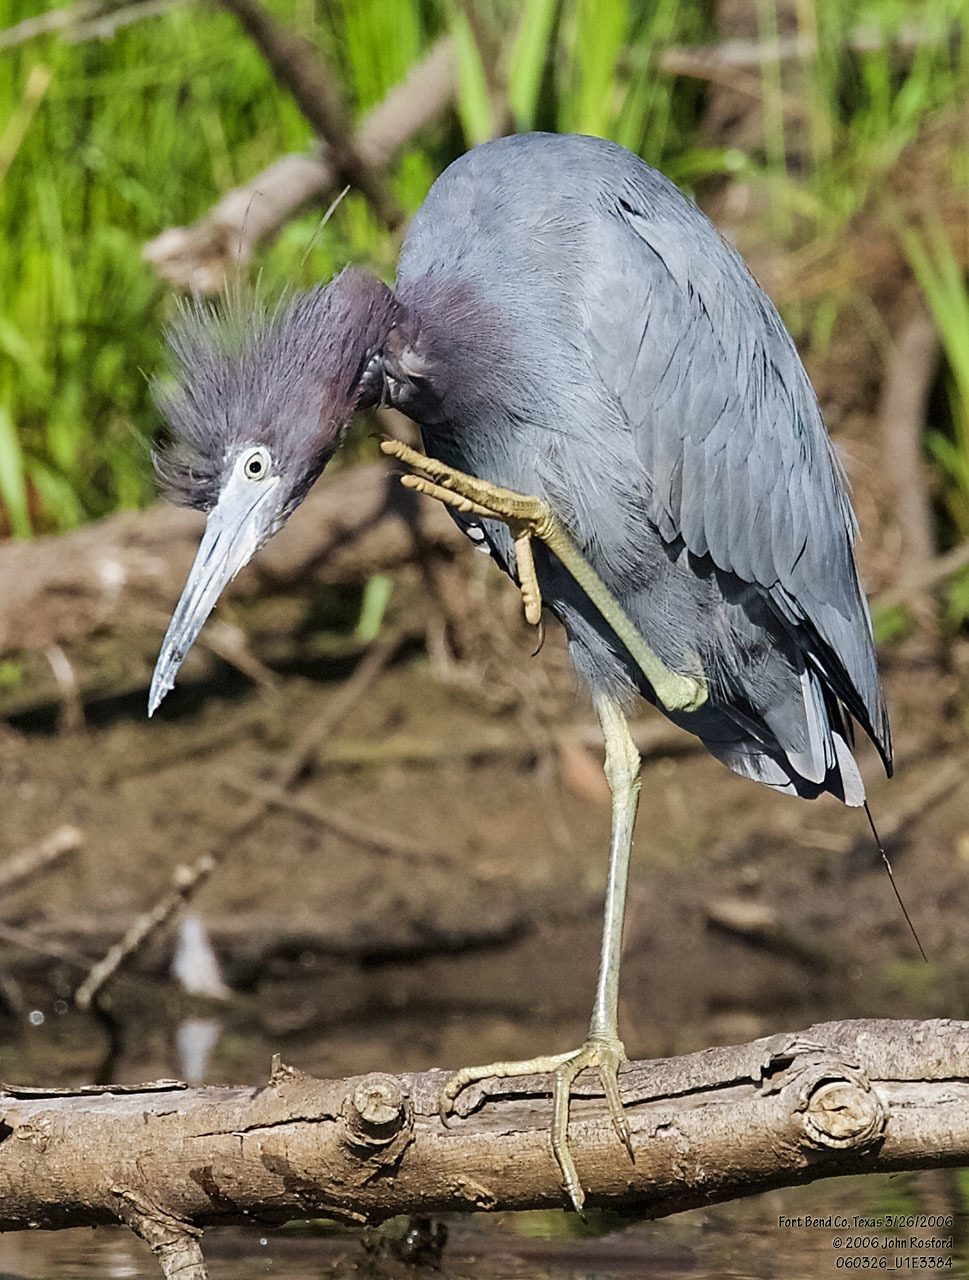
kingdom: Animalia
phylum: Chordata
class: Aves
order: Pelecaniformes
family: Ardeidae
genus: Egretta
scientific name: Egretta caerulea
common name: Little blue heron
